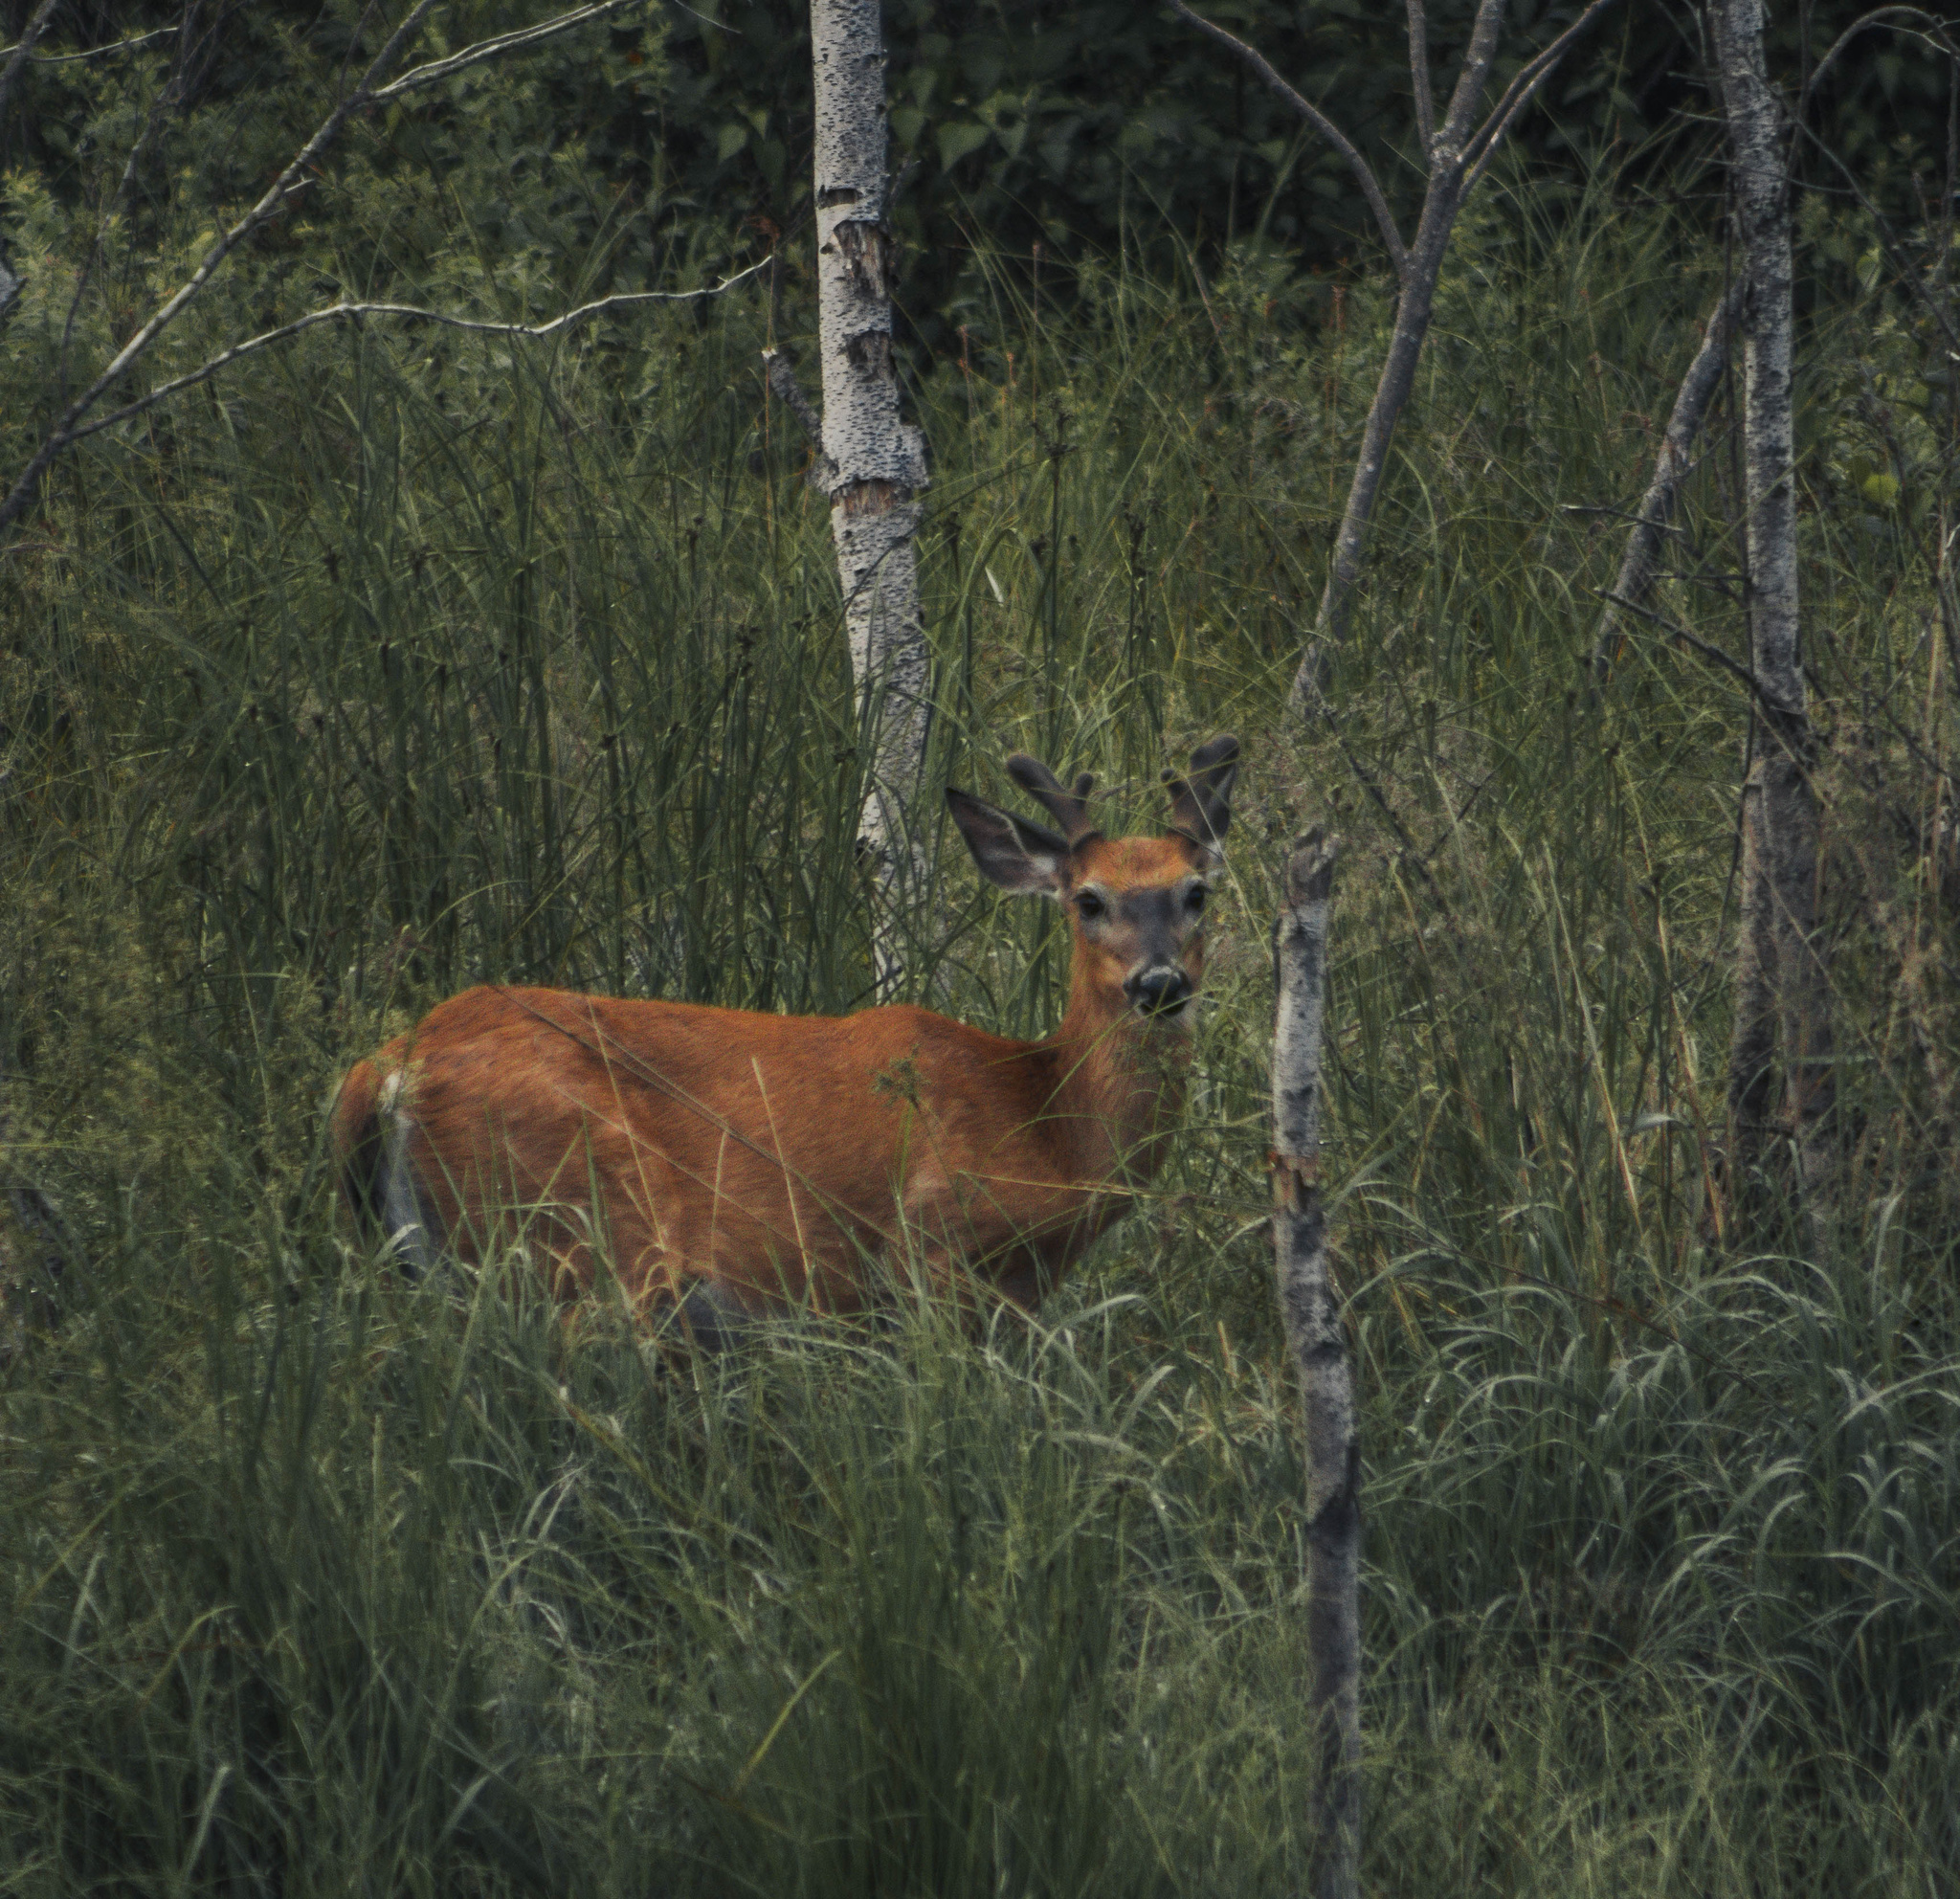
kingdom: Animalia
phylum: Chordata
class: Mammalia
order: Artiodactyla
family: Cervidae
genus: Odocoileus
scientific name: Odocoileus virginianus
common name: White-tailed deer
